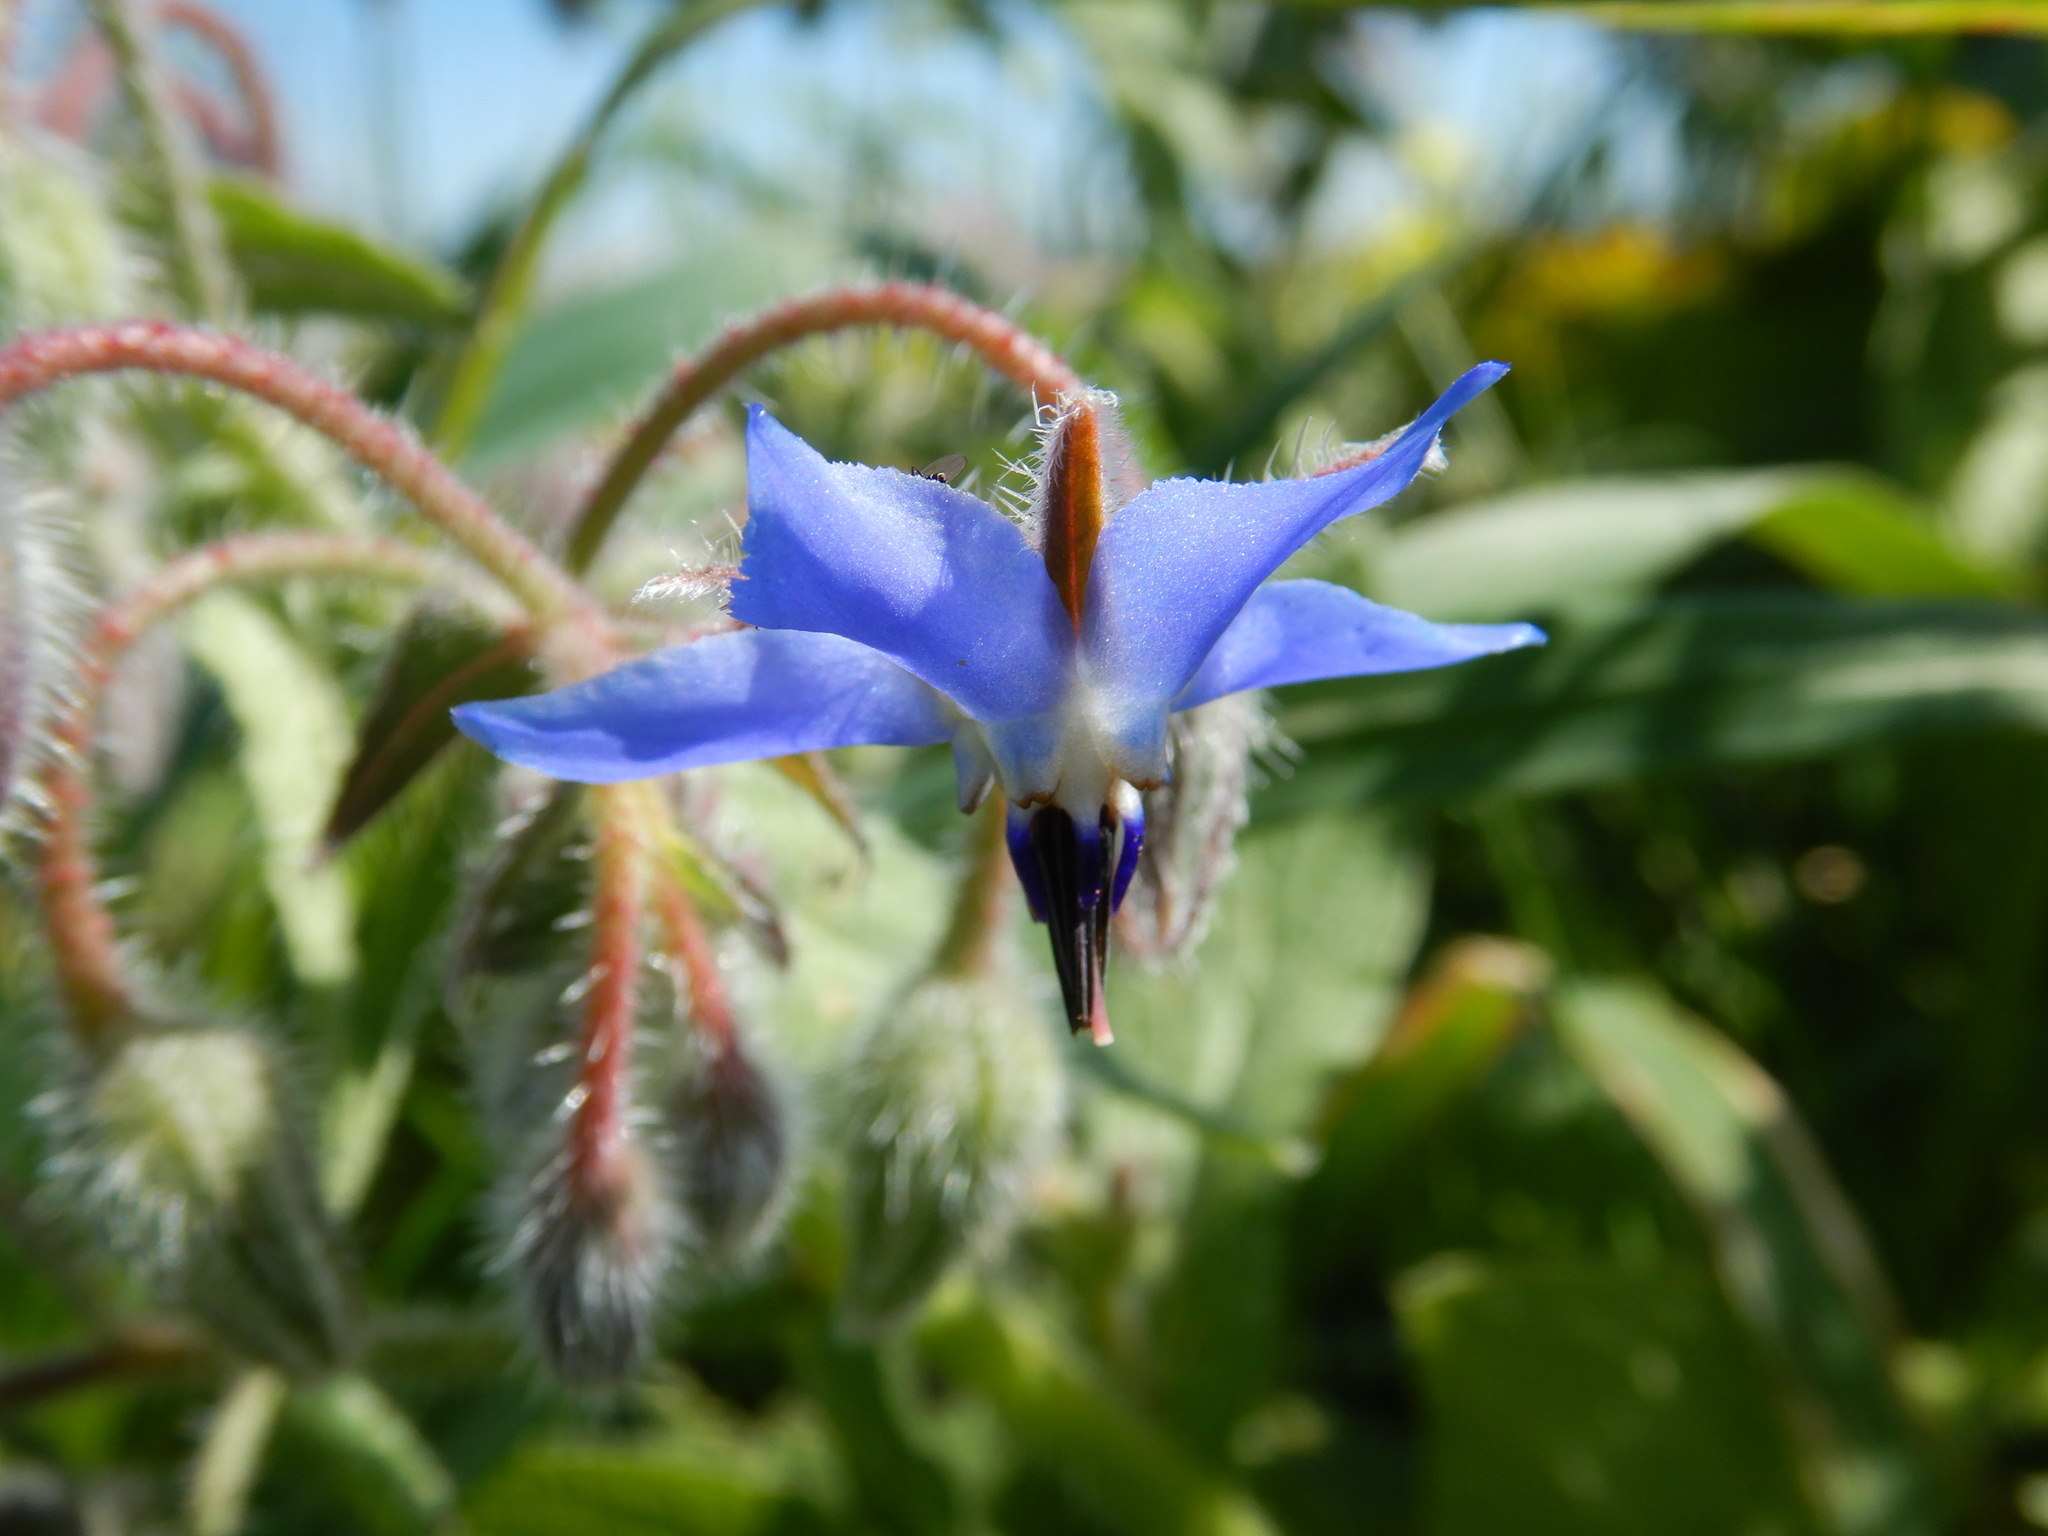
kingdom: Plantae
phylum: Tracheophyta
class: Magnoliopsida
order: Boraginales
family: Boraginaceae
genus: Borago
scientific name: Borago officinalis
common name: Borage
